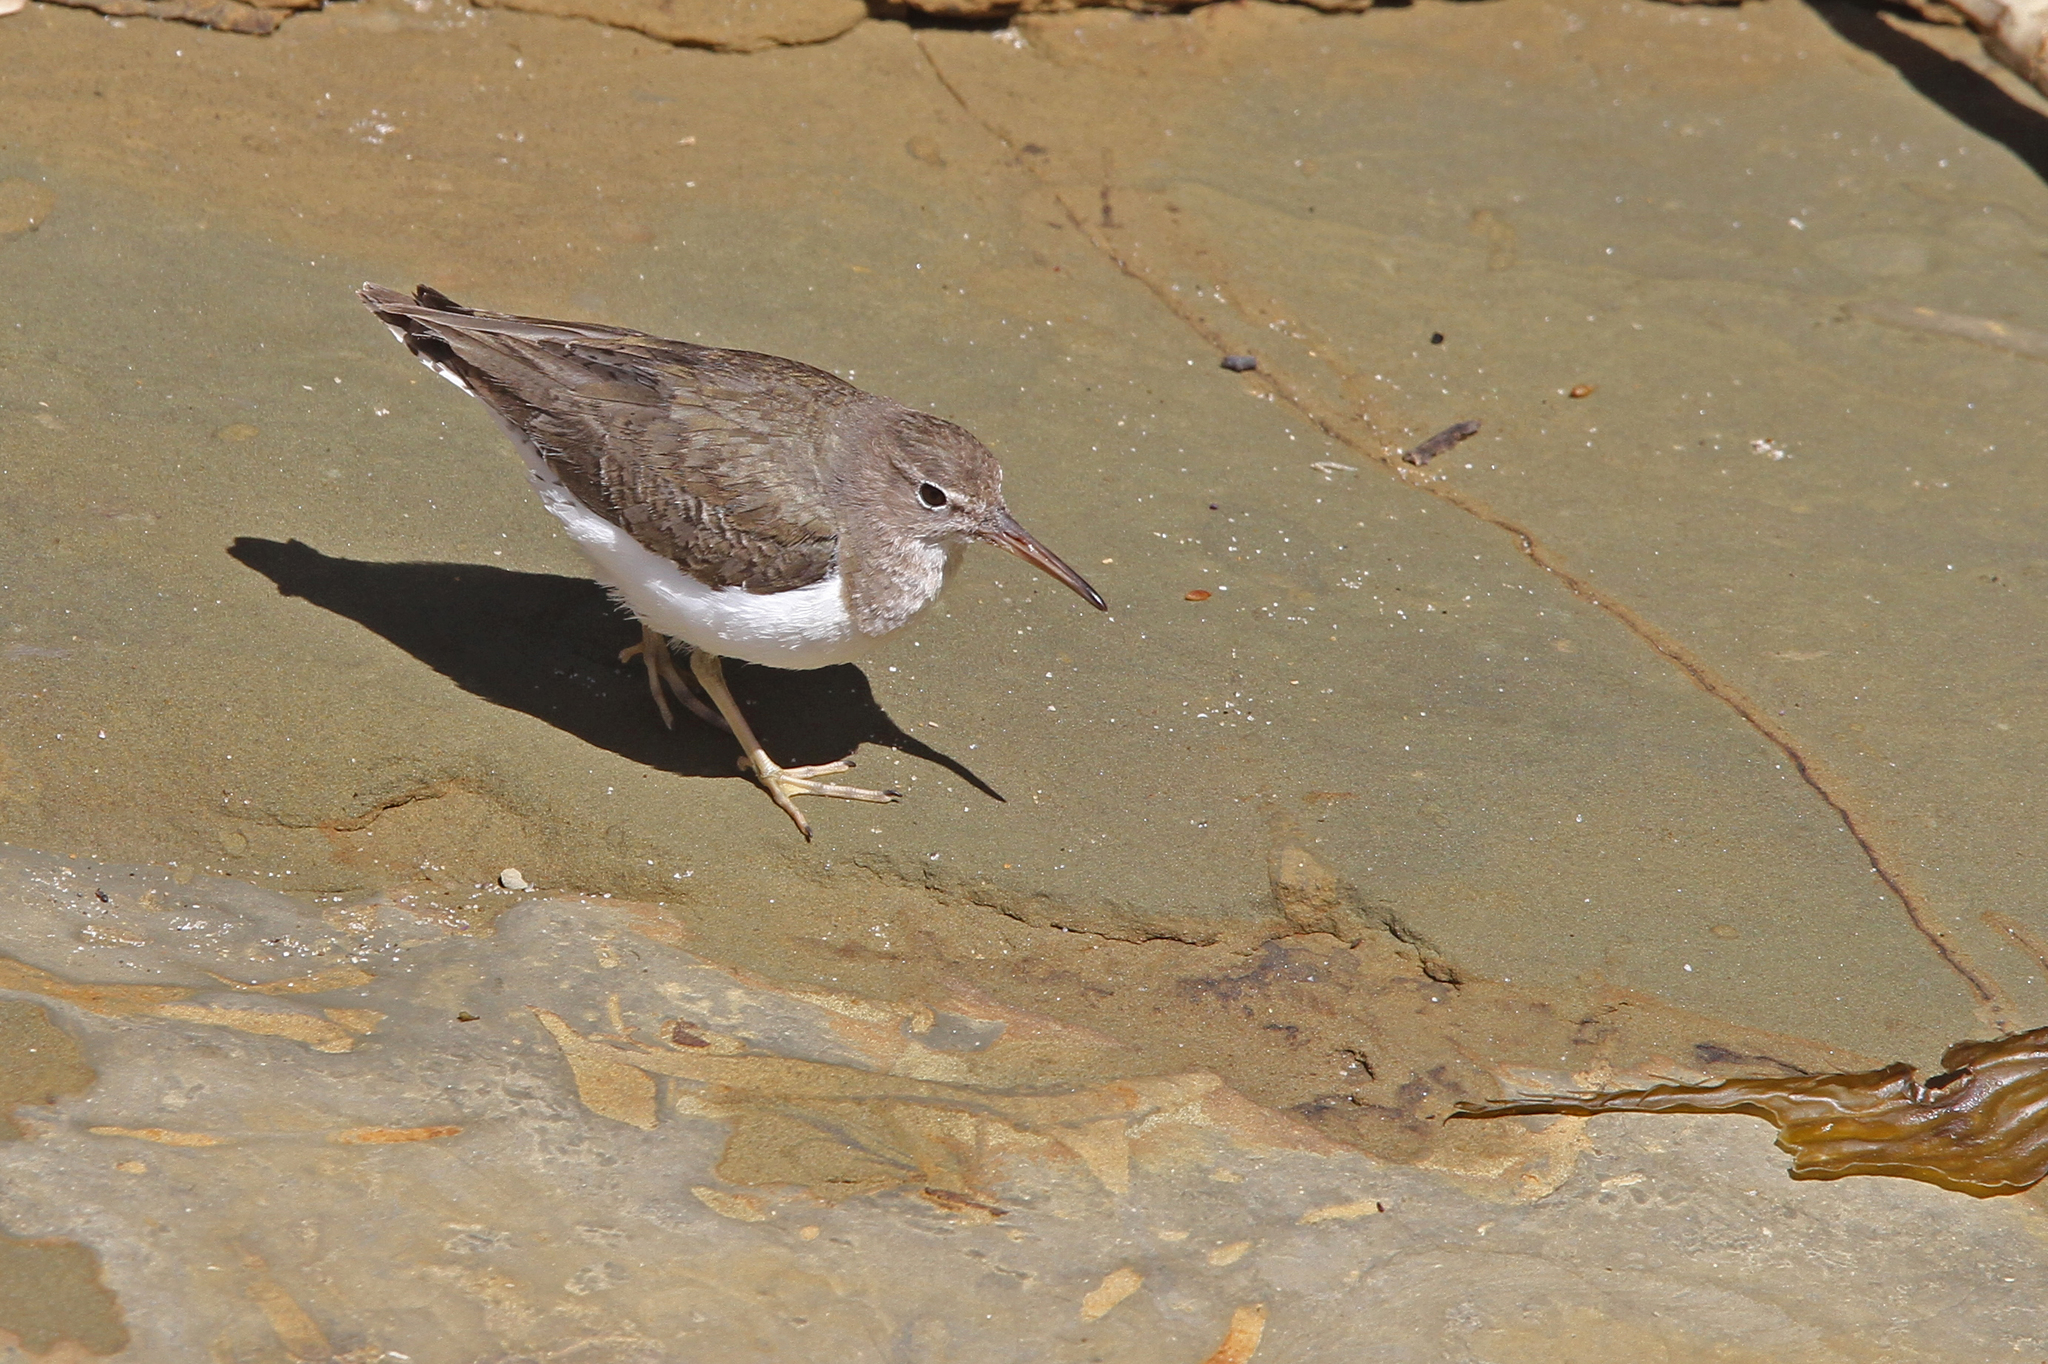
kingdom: Animalia
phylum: Chordata
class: Aves
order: Charadriiformes
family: Scolopacidae
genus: Actitis
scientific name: Actitis macularius
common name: Spotted sandpiper
